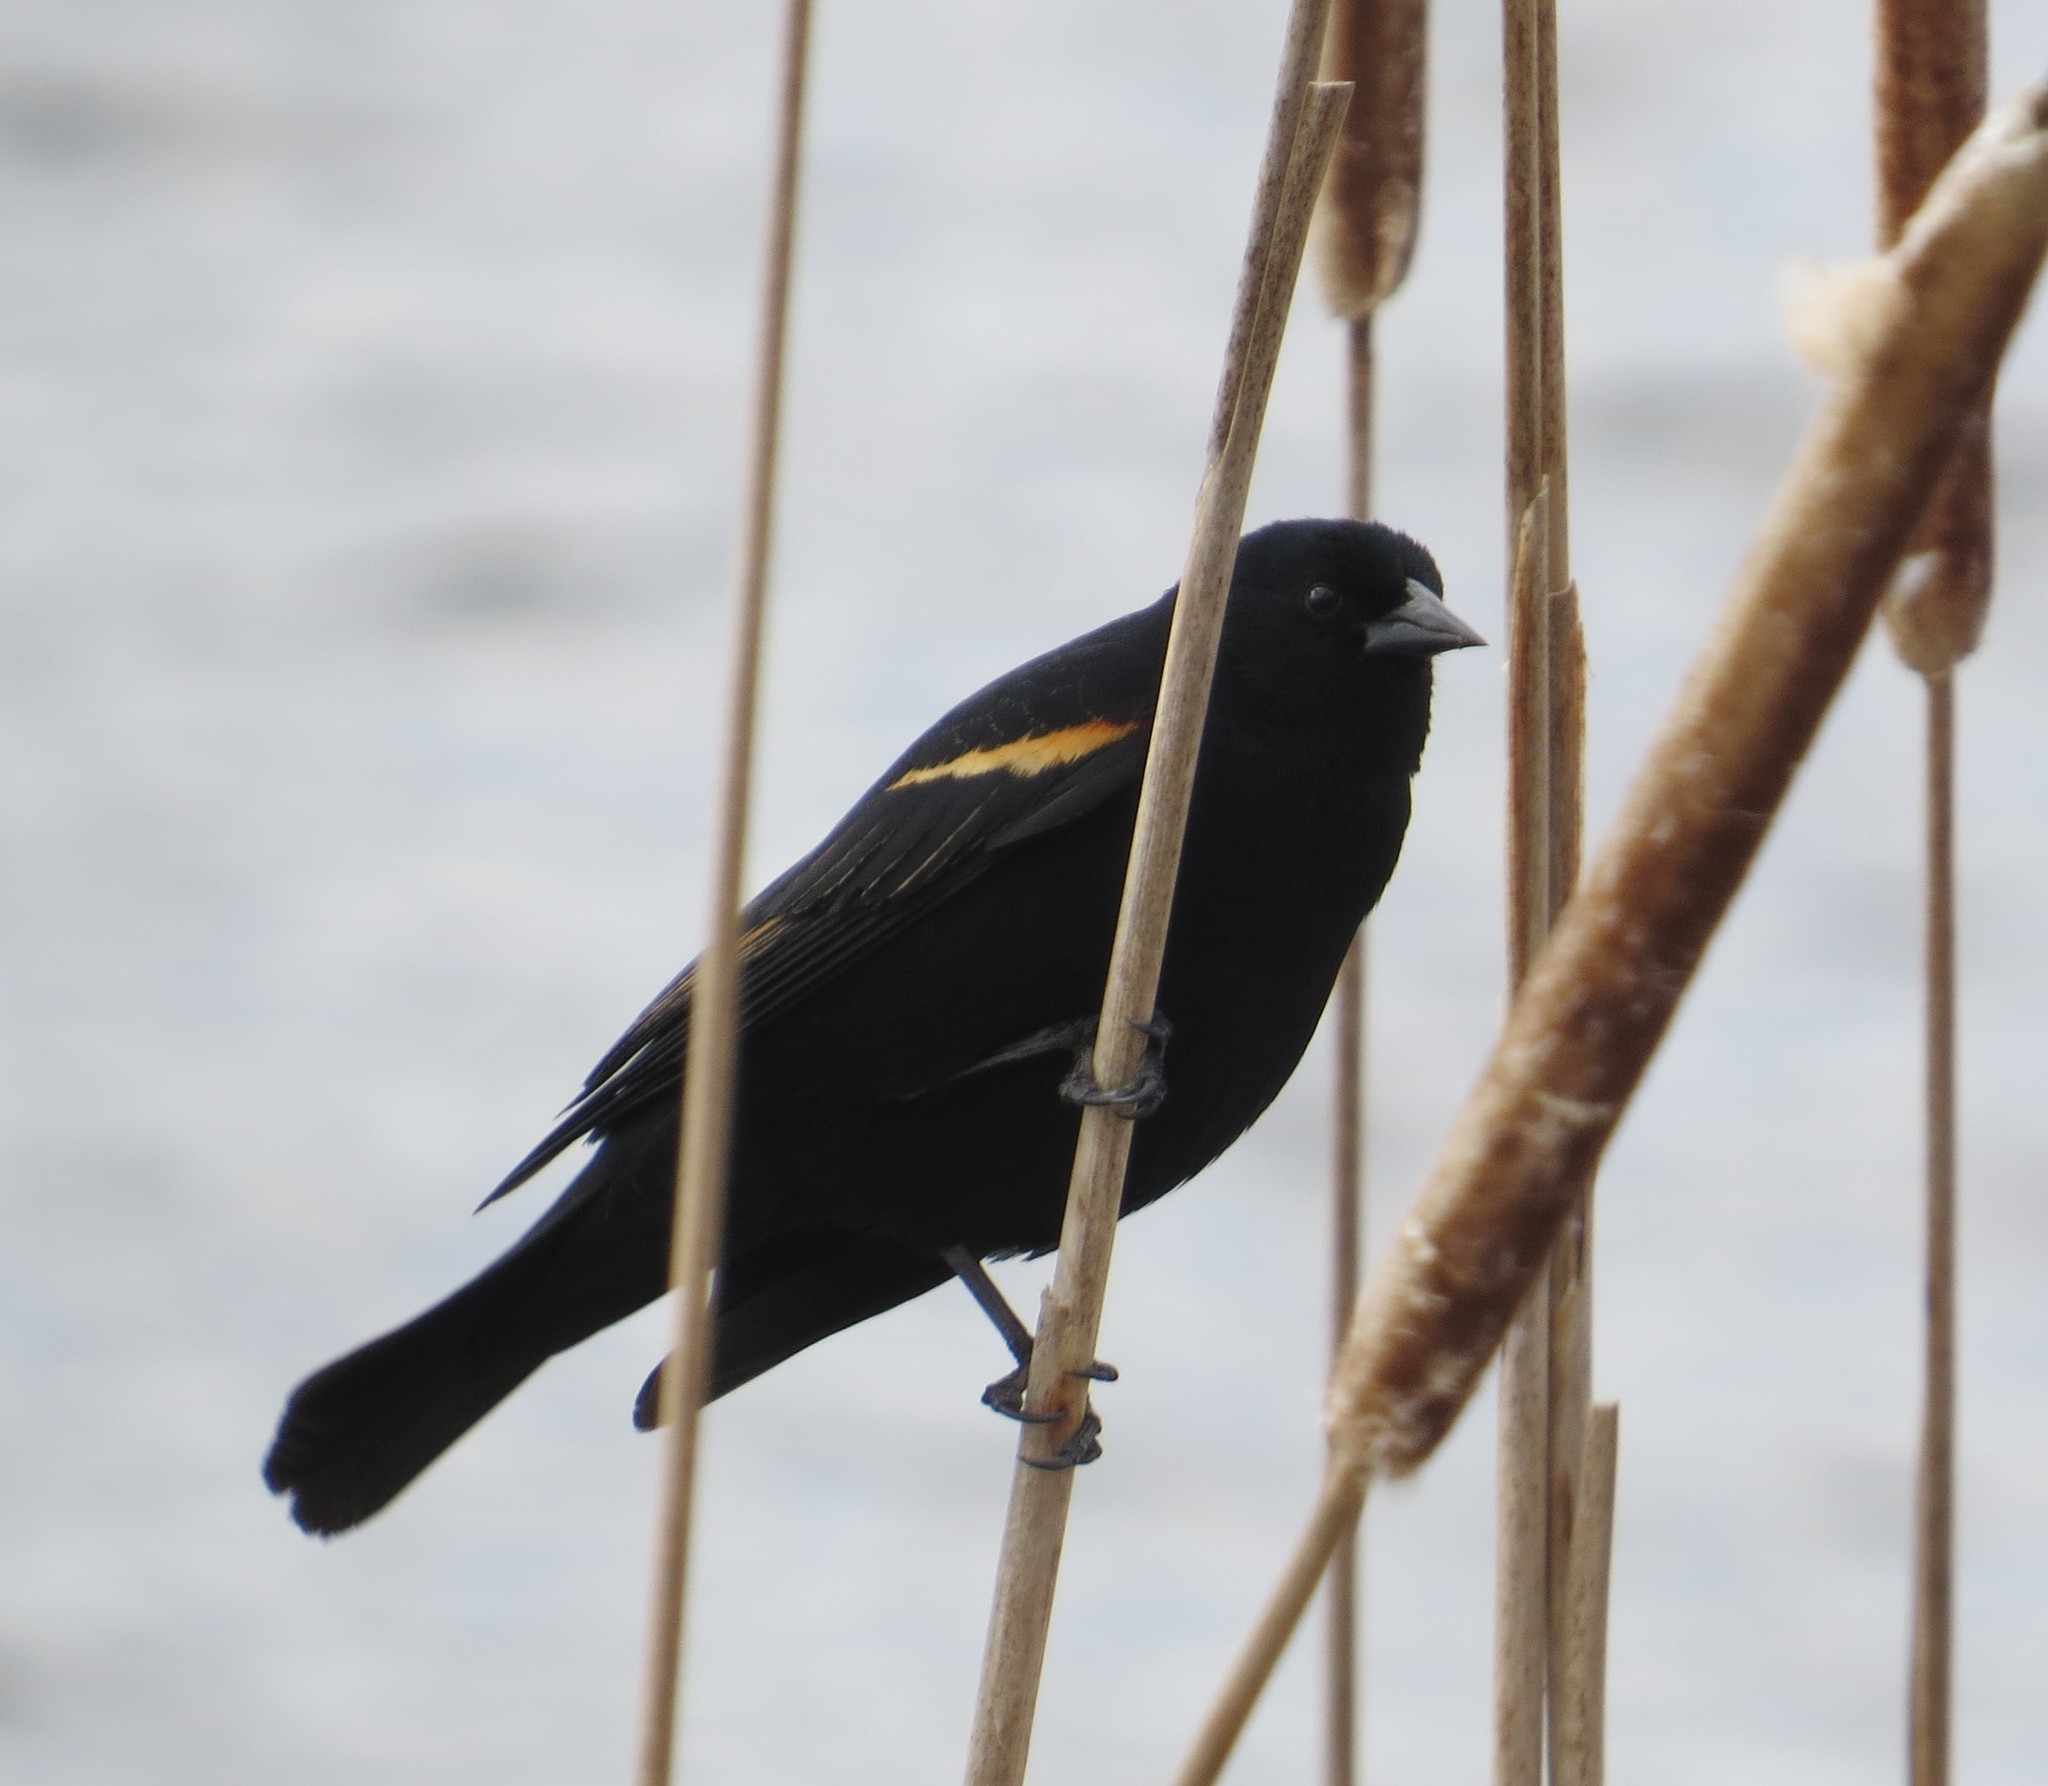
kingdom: Animalia
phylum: Chordata
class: Aves
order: Passeriformes
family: Icteridae
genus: Agelaius
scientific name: Agelaius phoeniceus
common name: Red-winged blackbird
